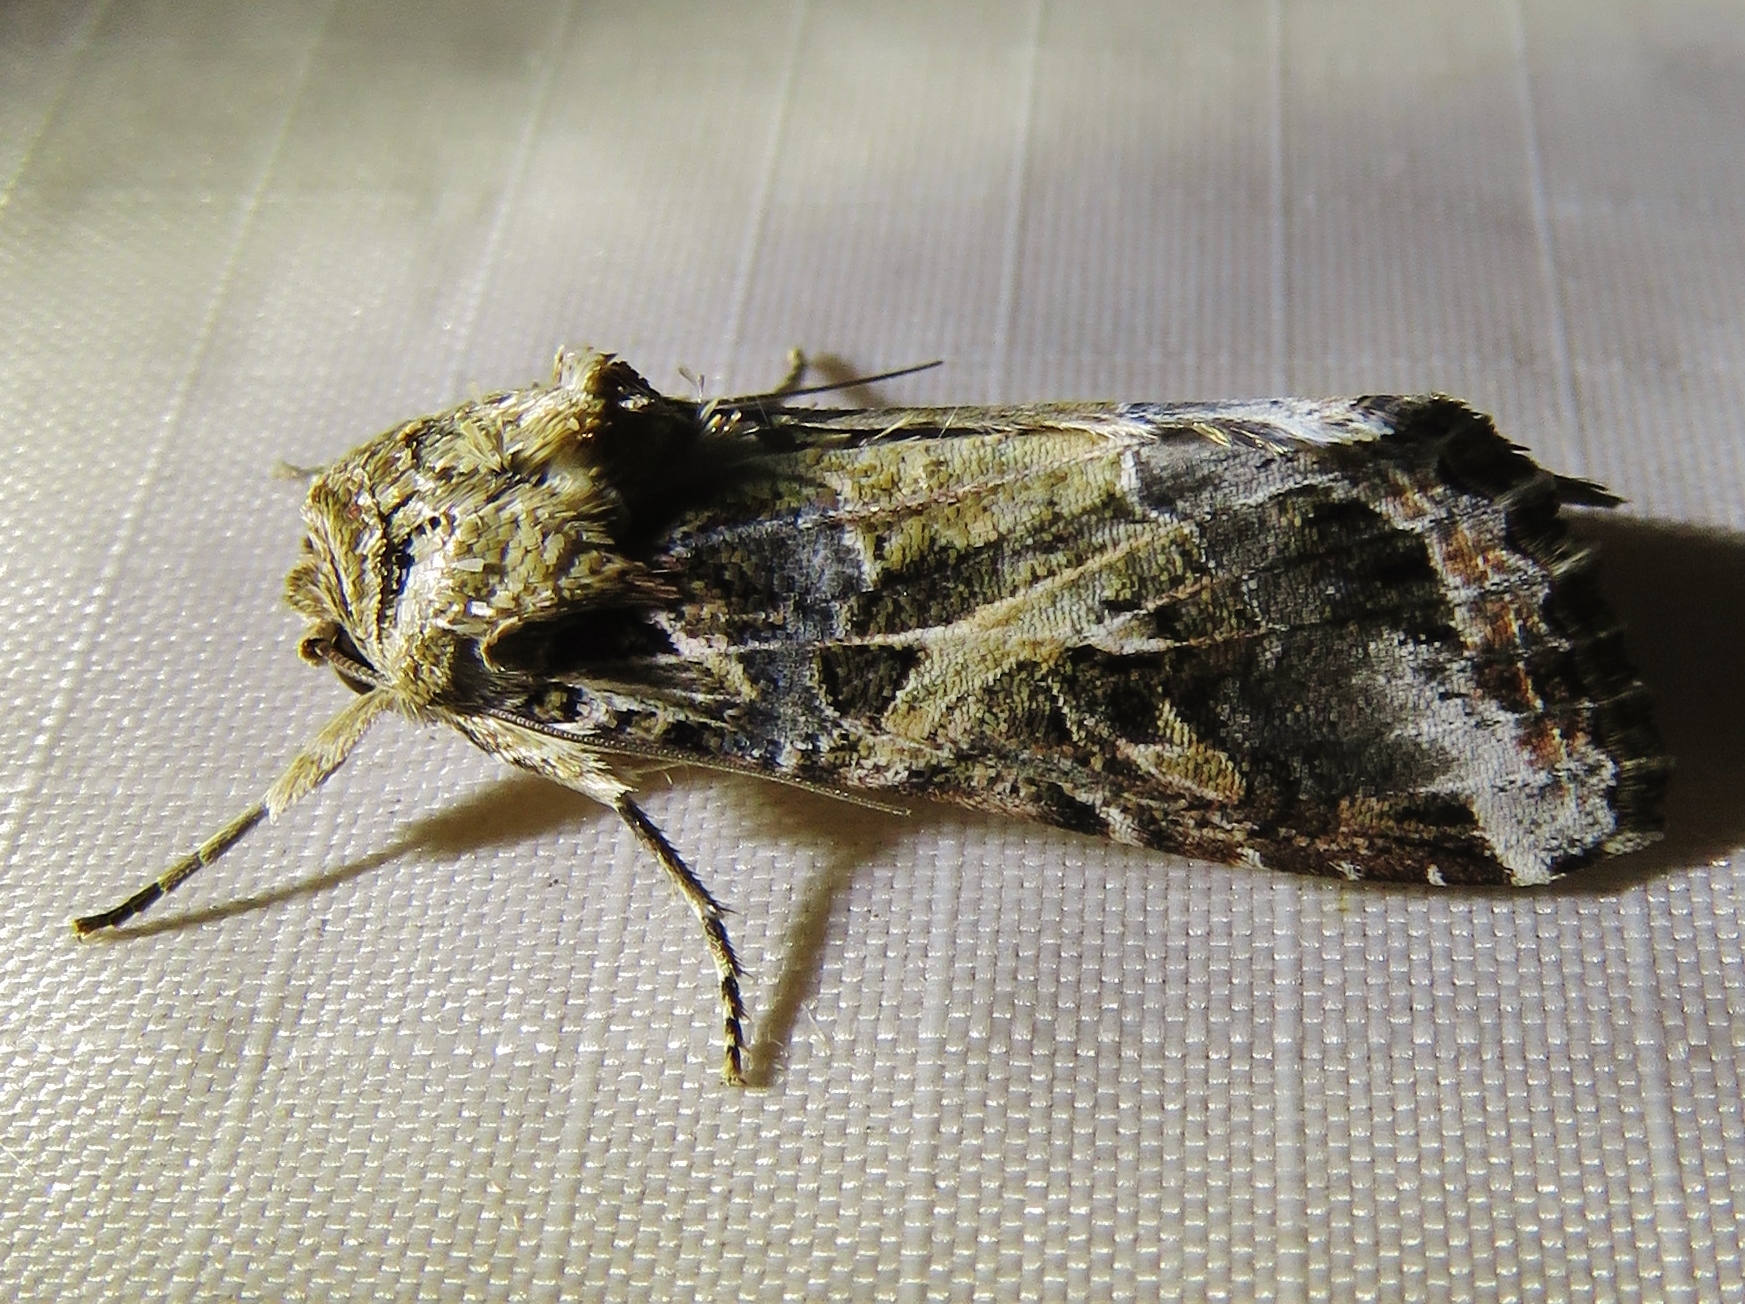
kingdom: Animalia
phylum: Arthropoda
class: Insecta
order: Lepidoptera
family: Noctuidae
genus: Spodoptera
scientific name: Spodoptera ornithogalli
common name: Yellow-striped armyworm
